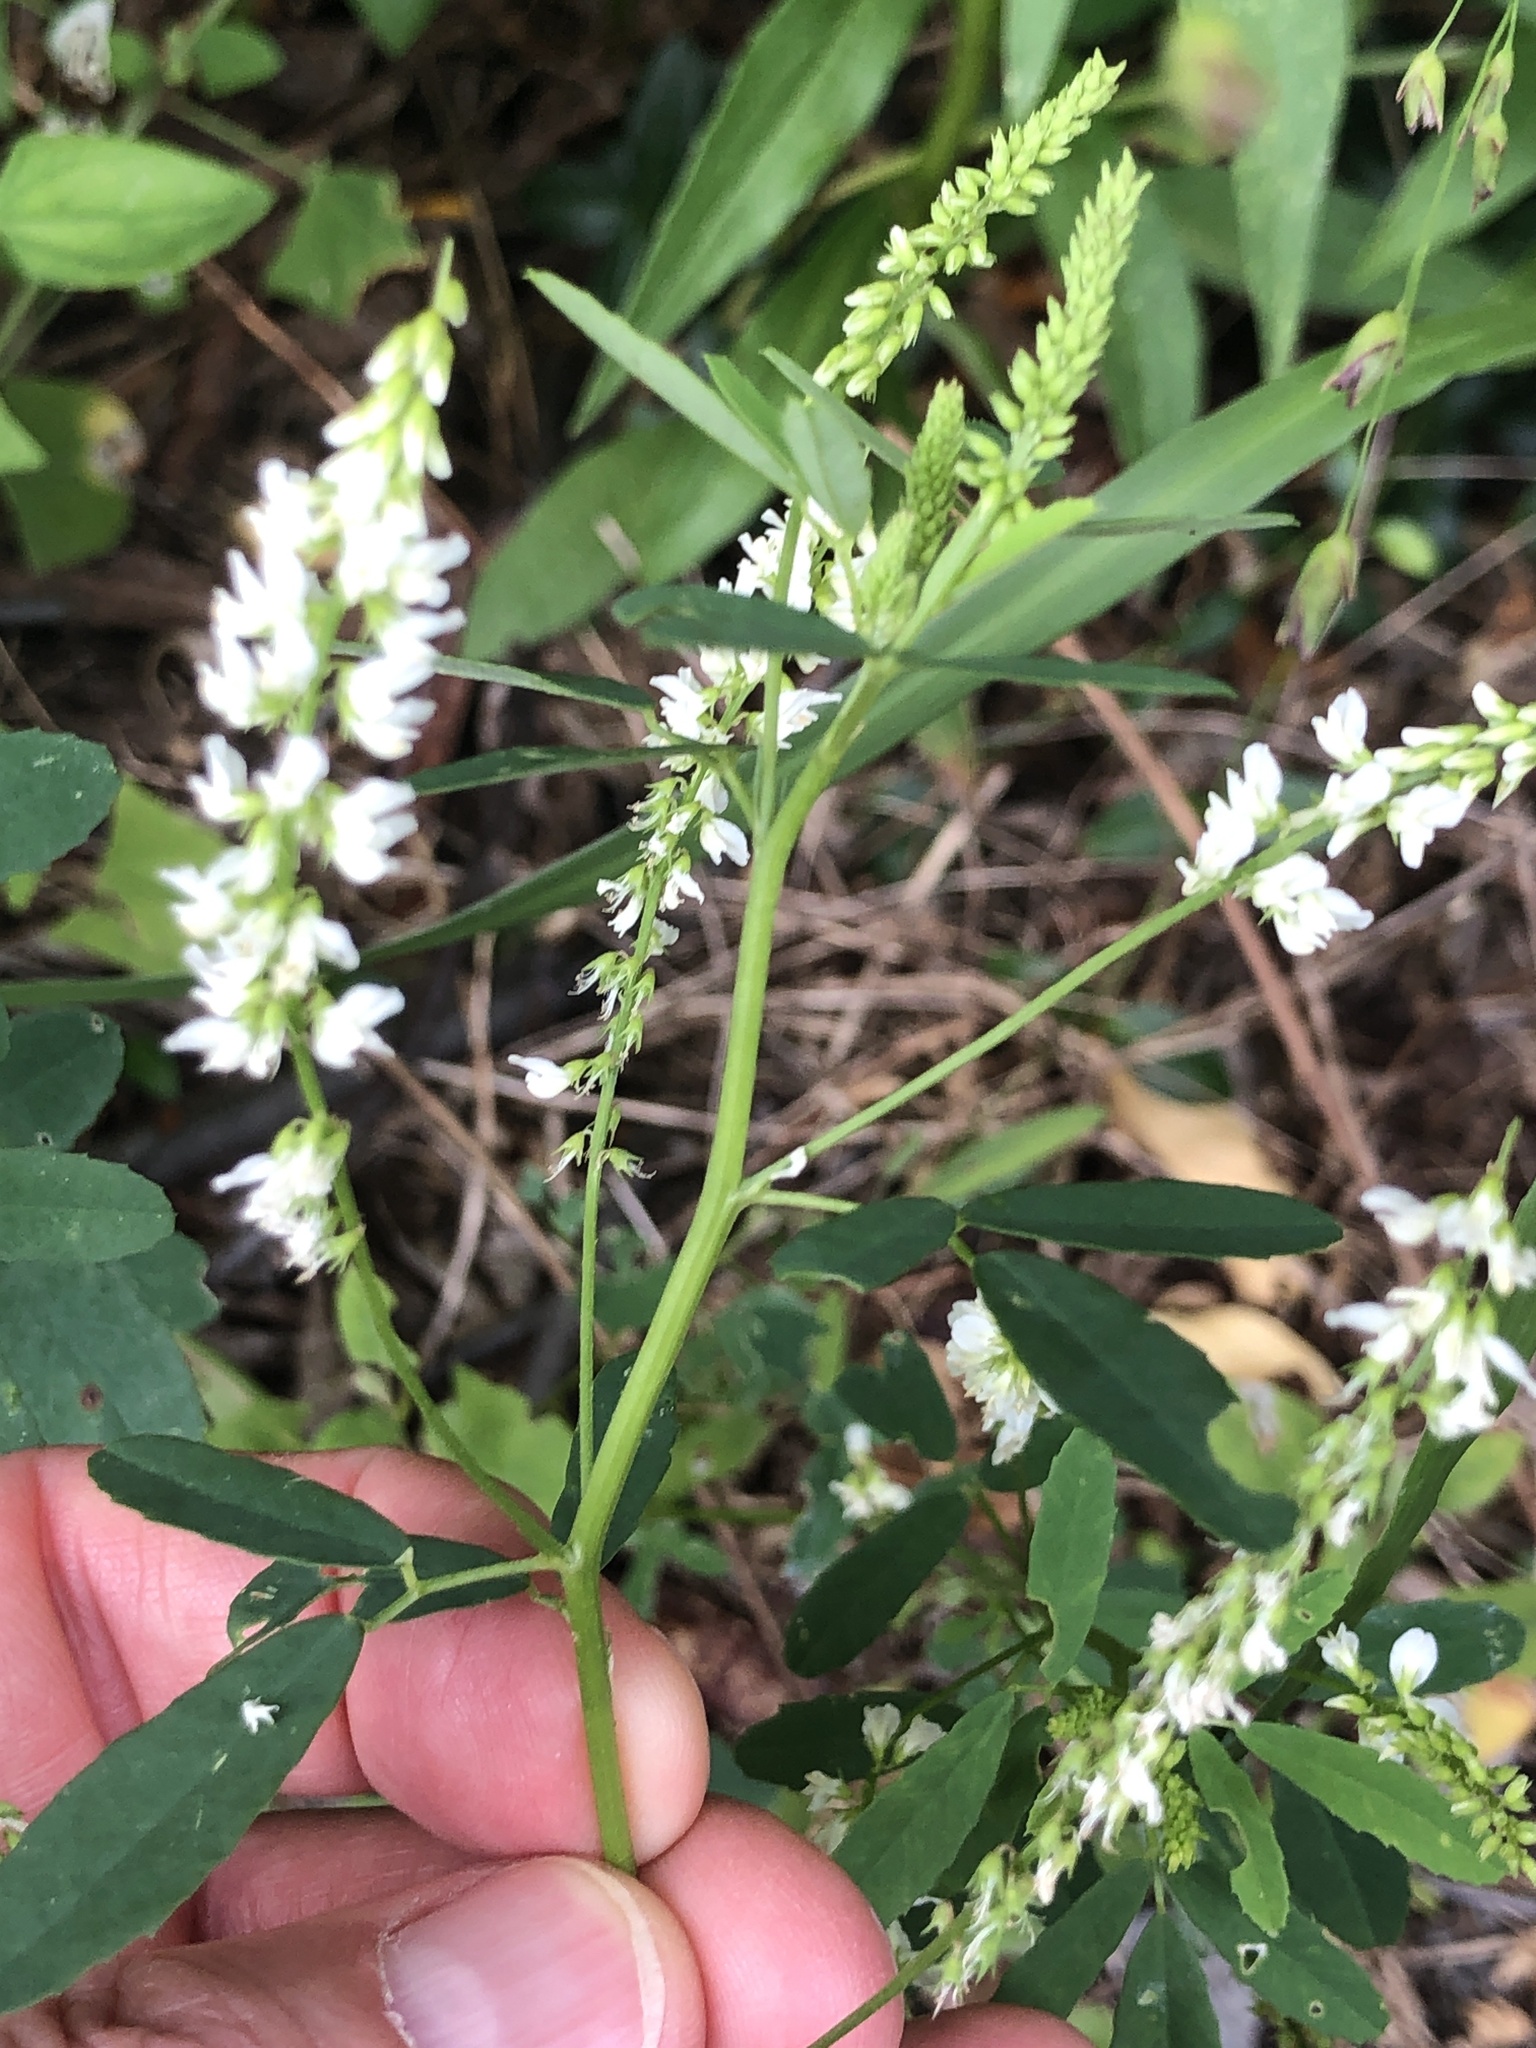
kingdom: Plantae
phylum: Tracheophyta
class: Magnoliopsida
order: Fabales
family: Fabaceae
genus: Melilotus
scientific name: Melilotus albus
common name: White melilot
